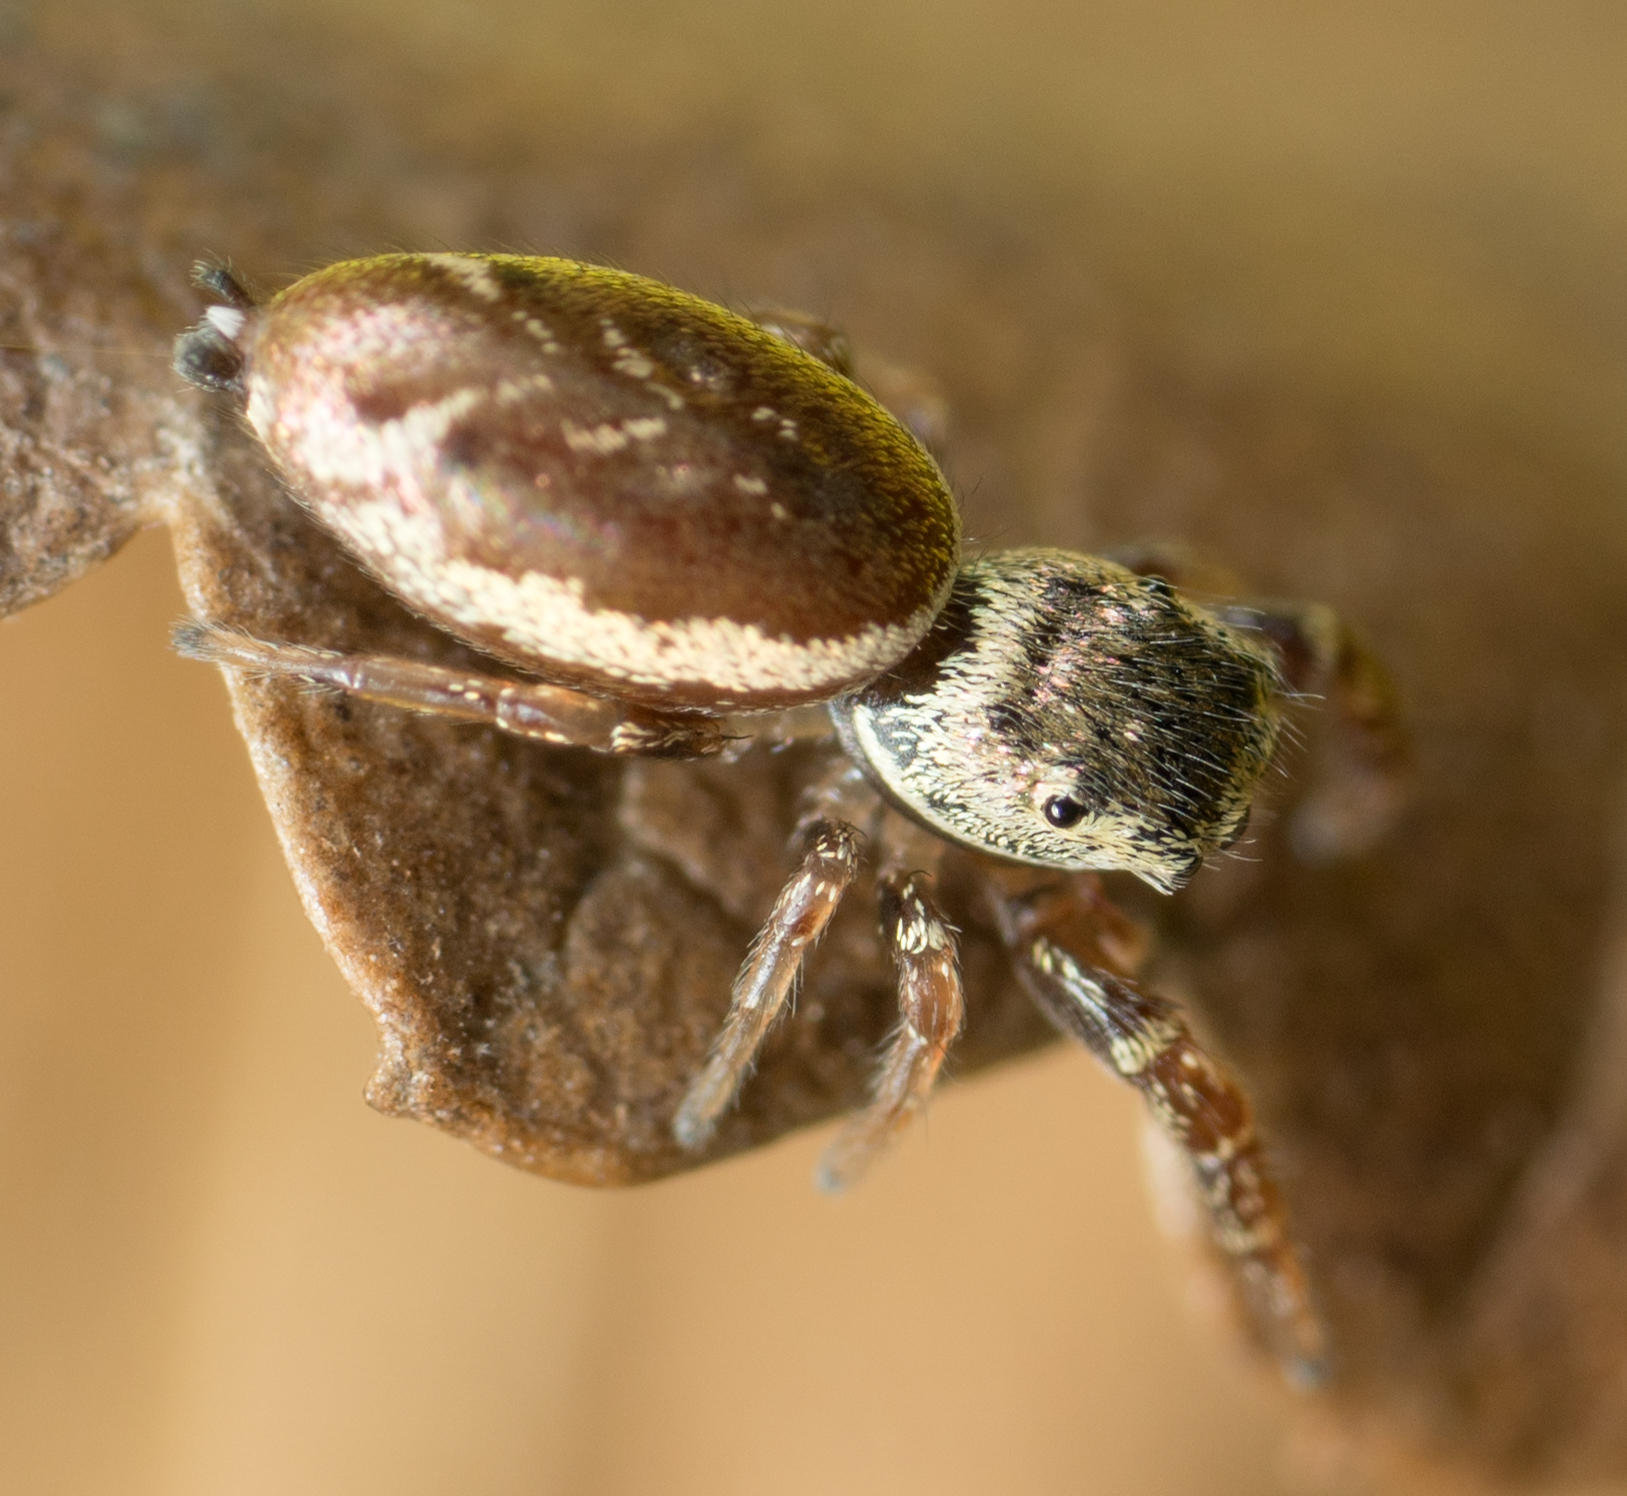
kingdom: Animalia
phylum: Arthropoda
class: Arachnida
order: Araneae
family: Salticidae
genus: Sassacus
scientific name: Sassacus vitis
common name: Jumping spiders
